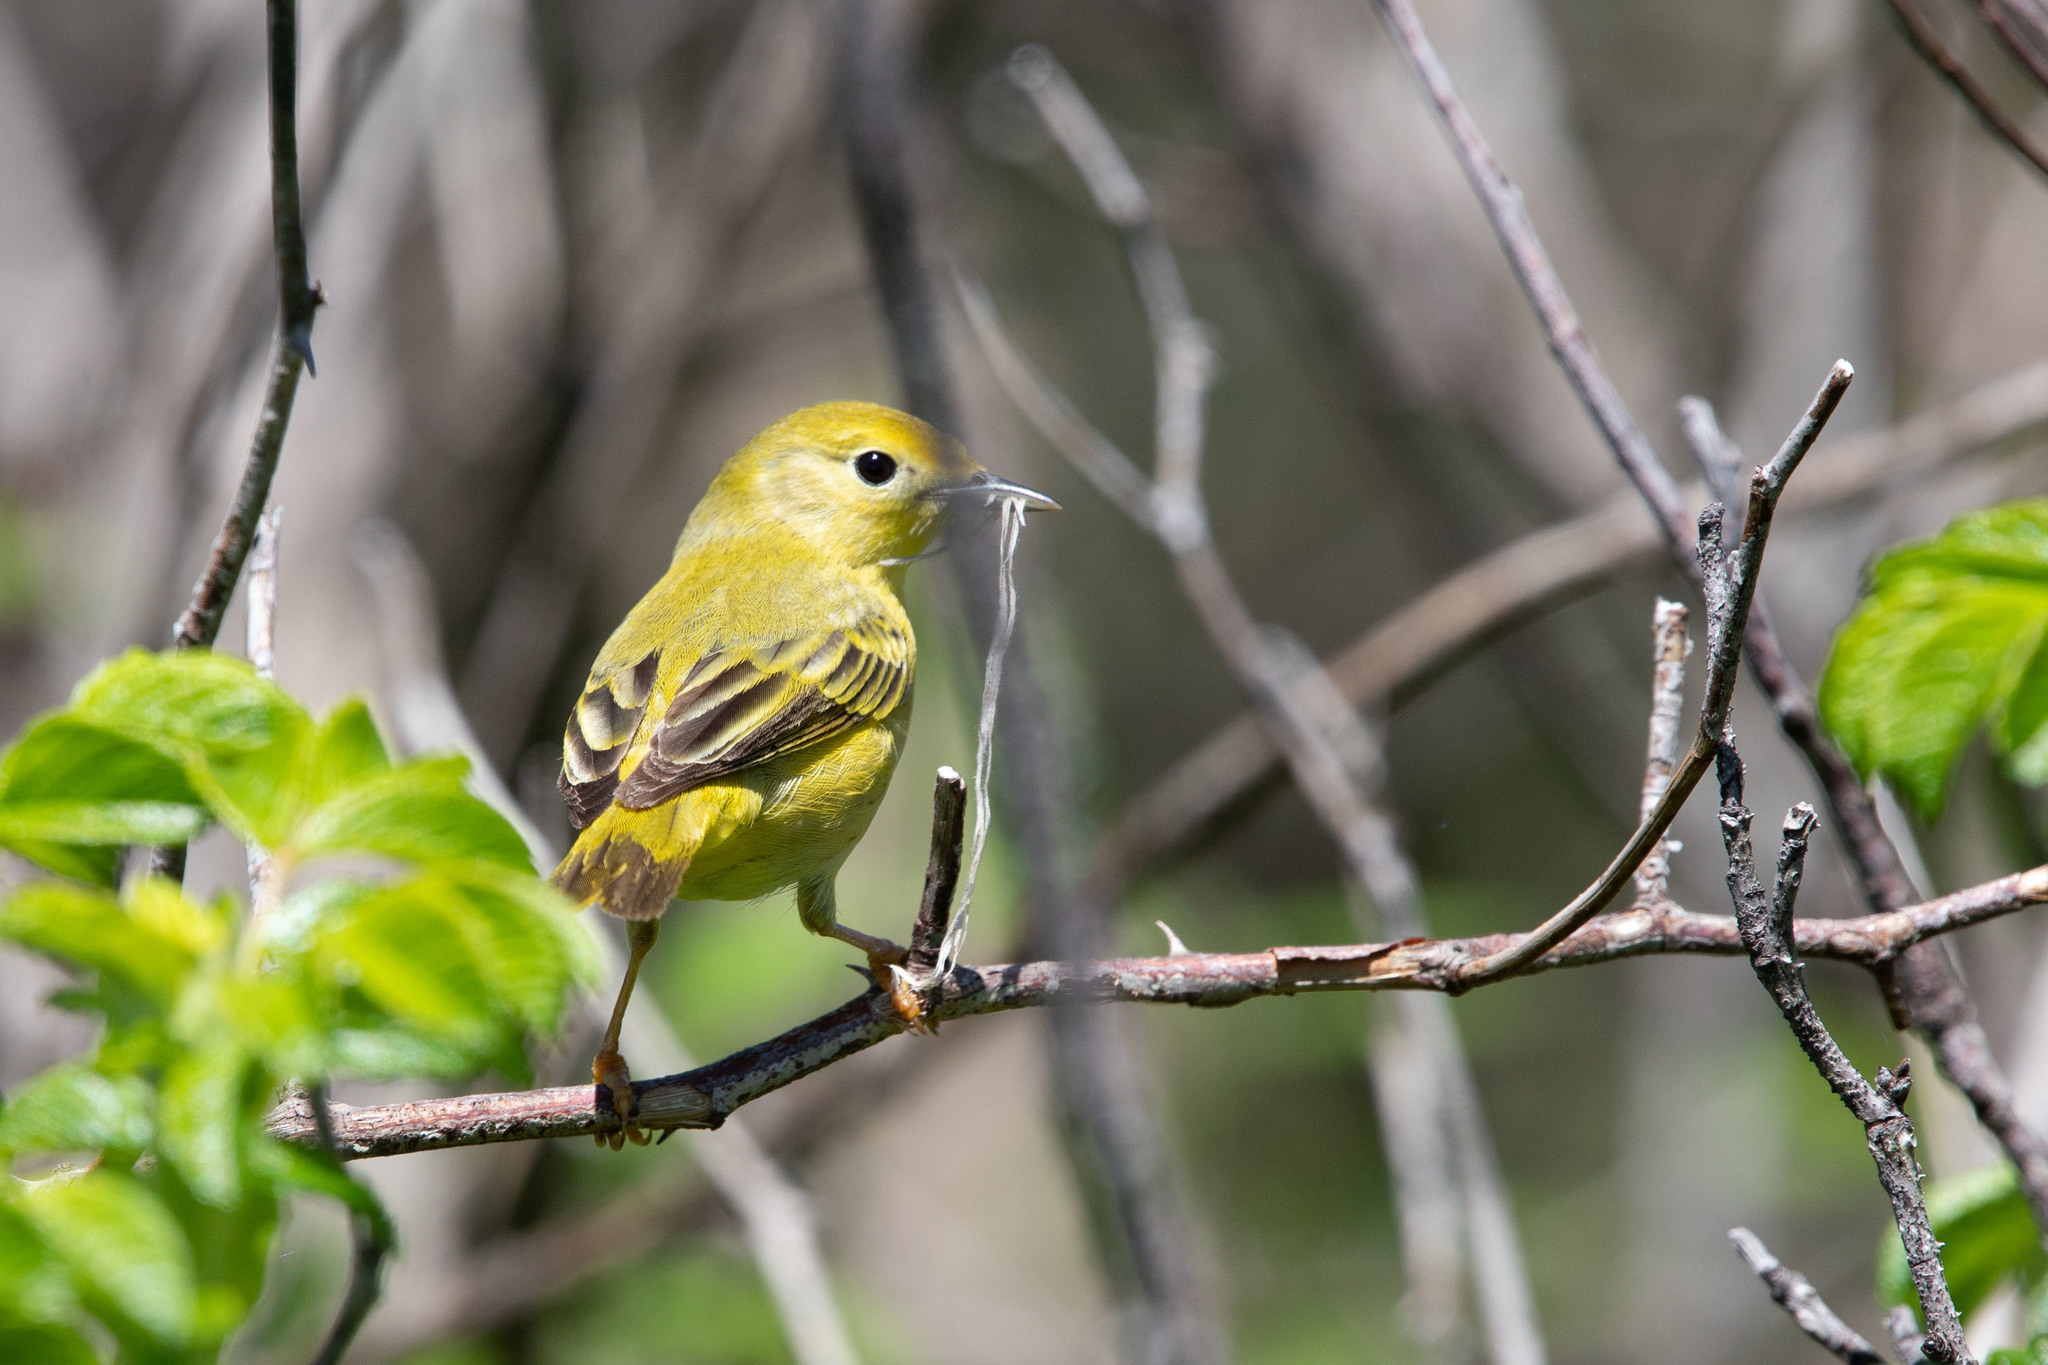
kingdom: Animalia
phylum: Chordata
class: Aves
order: Passeriformes
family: Parulidae
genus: Setophaga
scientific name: Setophaga petechia
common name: Yellow warbler
